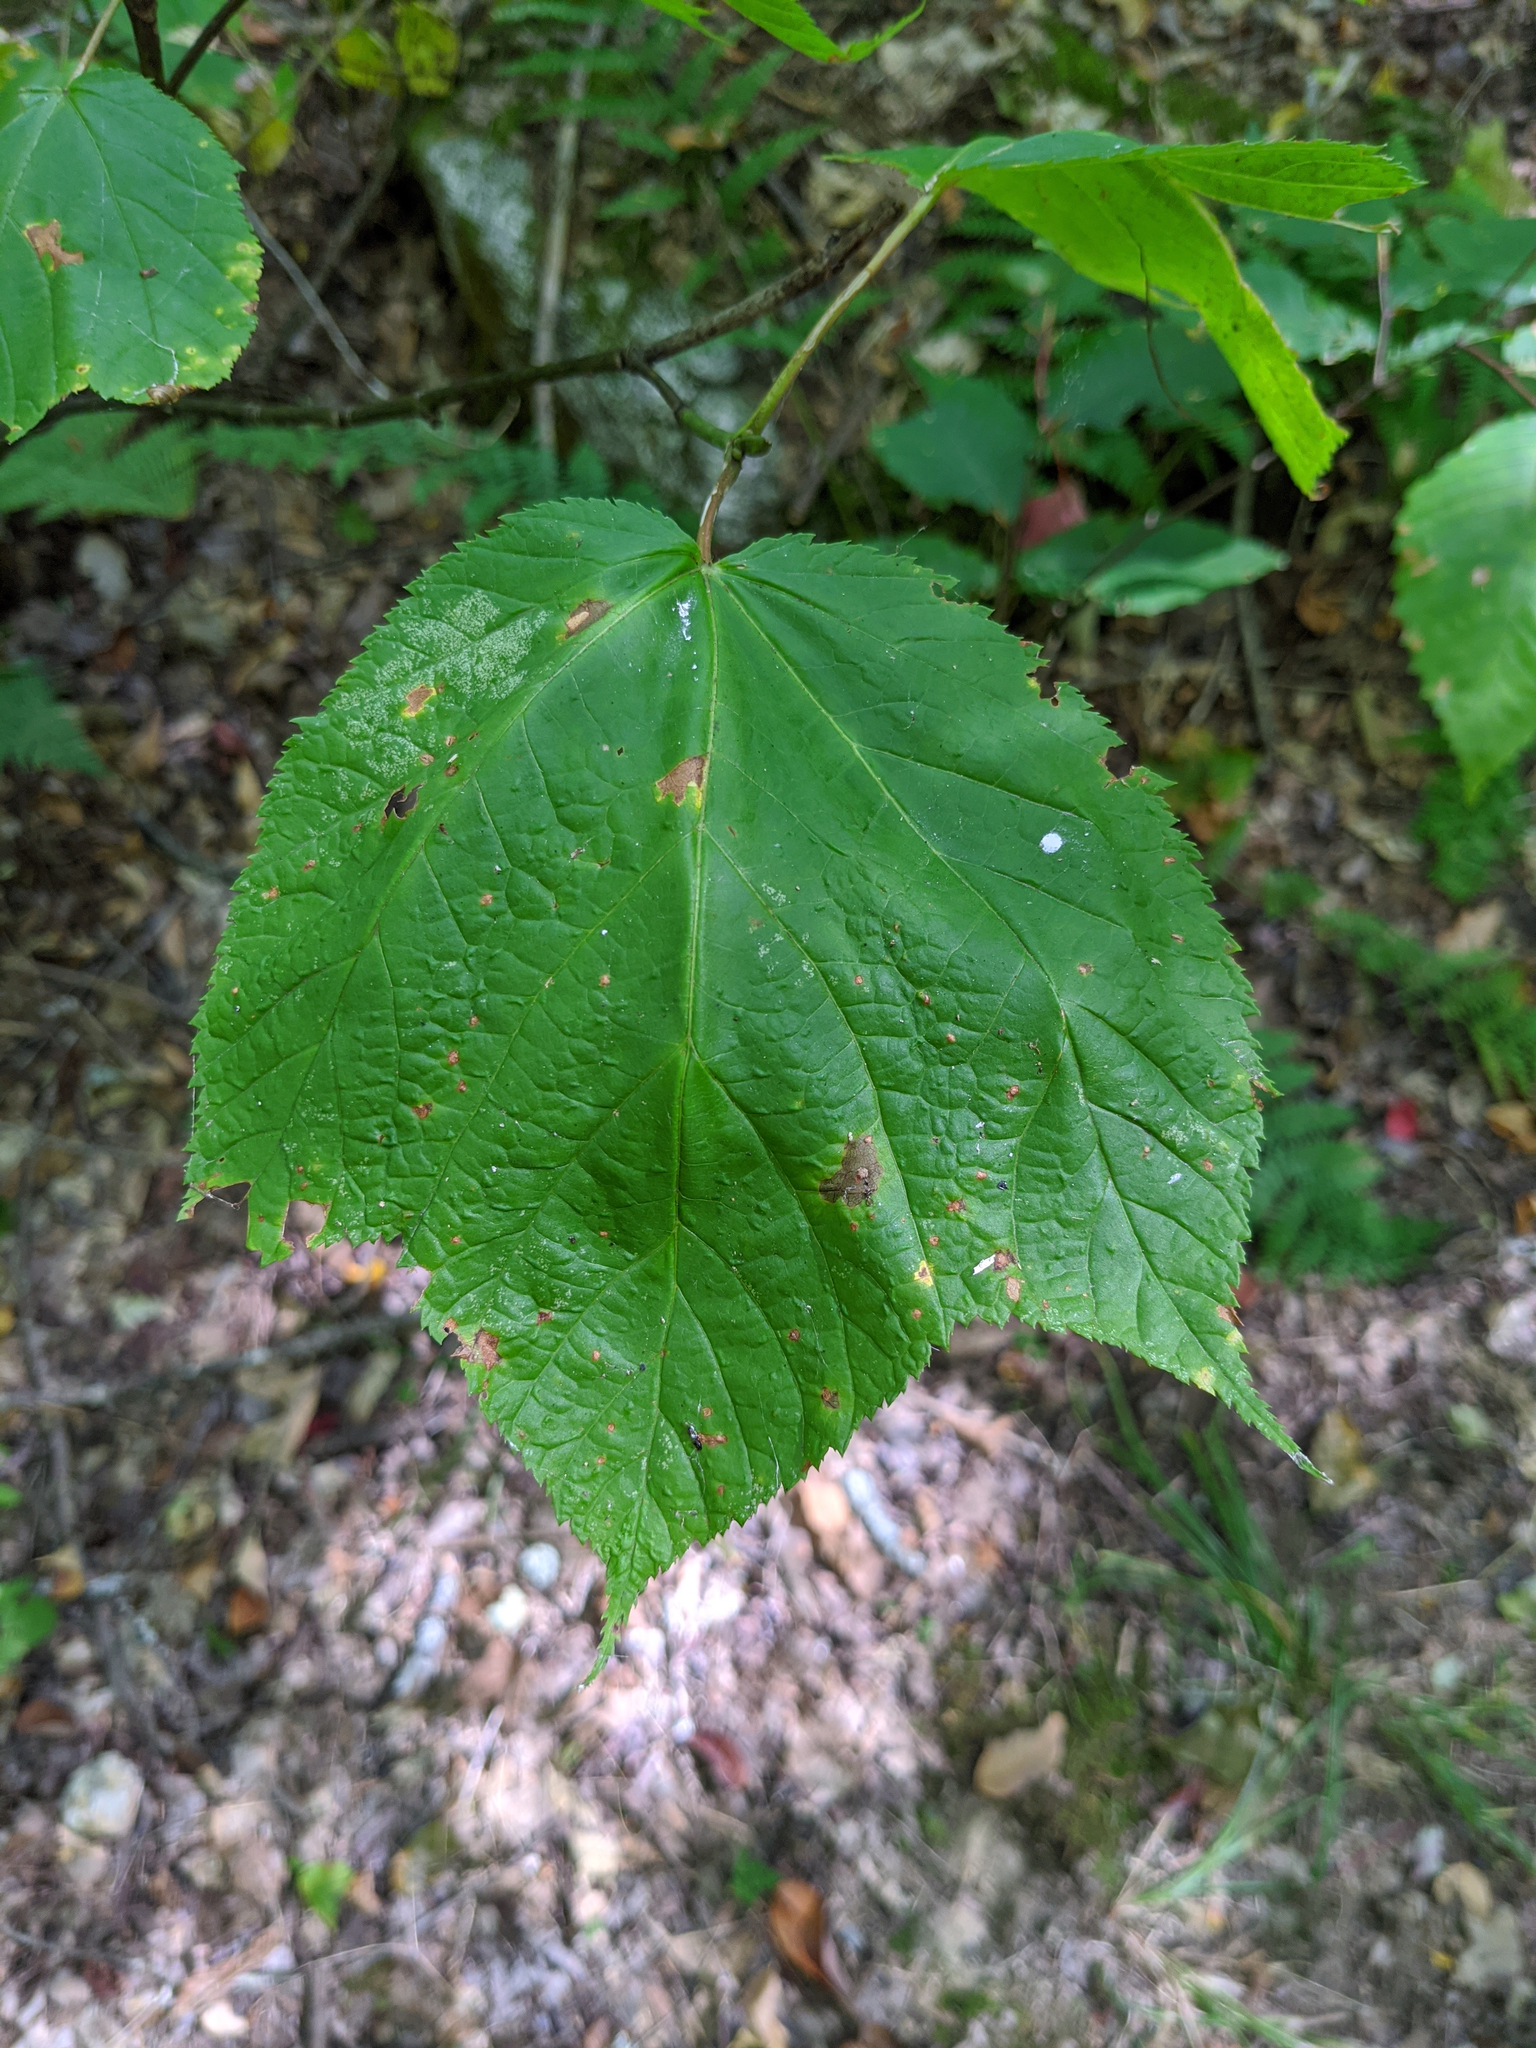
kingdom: Plantae
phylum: Tracheophyta
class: Magnoliopsida
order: Sapindales
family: Sapindaceae
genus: Acer
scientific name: Acer pensylvanicum
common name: Moosewood
